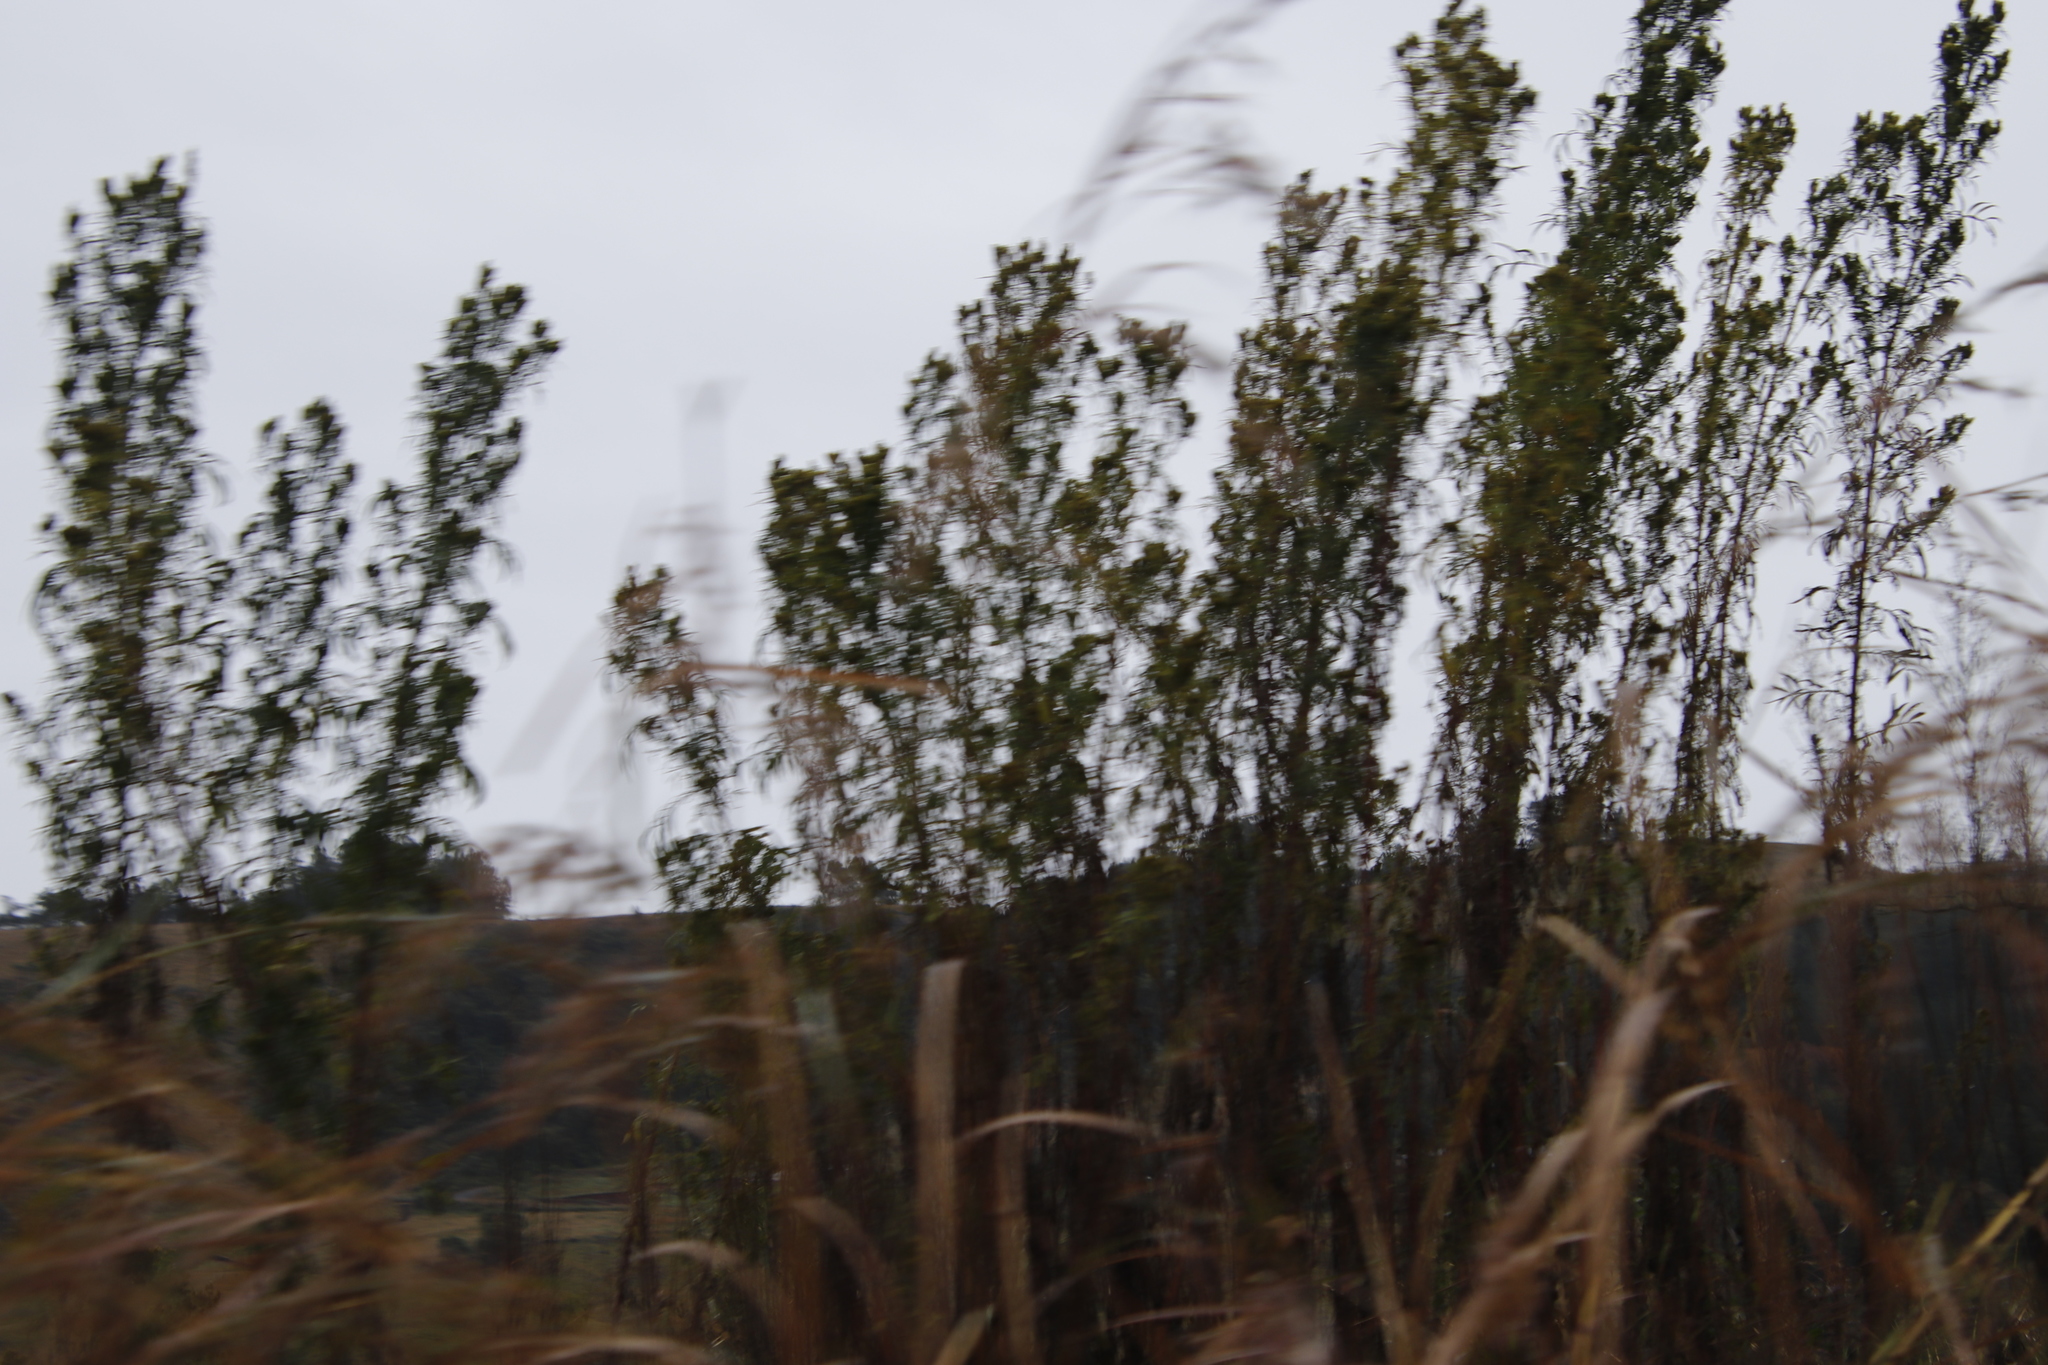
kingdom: Plantae
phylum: Tracheophyta
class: Magnoliopsida
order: Asterales
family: Asteraceae
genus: Tagetes
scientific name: Tagetes minuta
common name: Muster john henry
